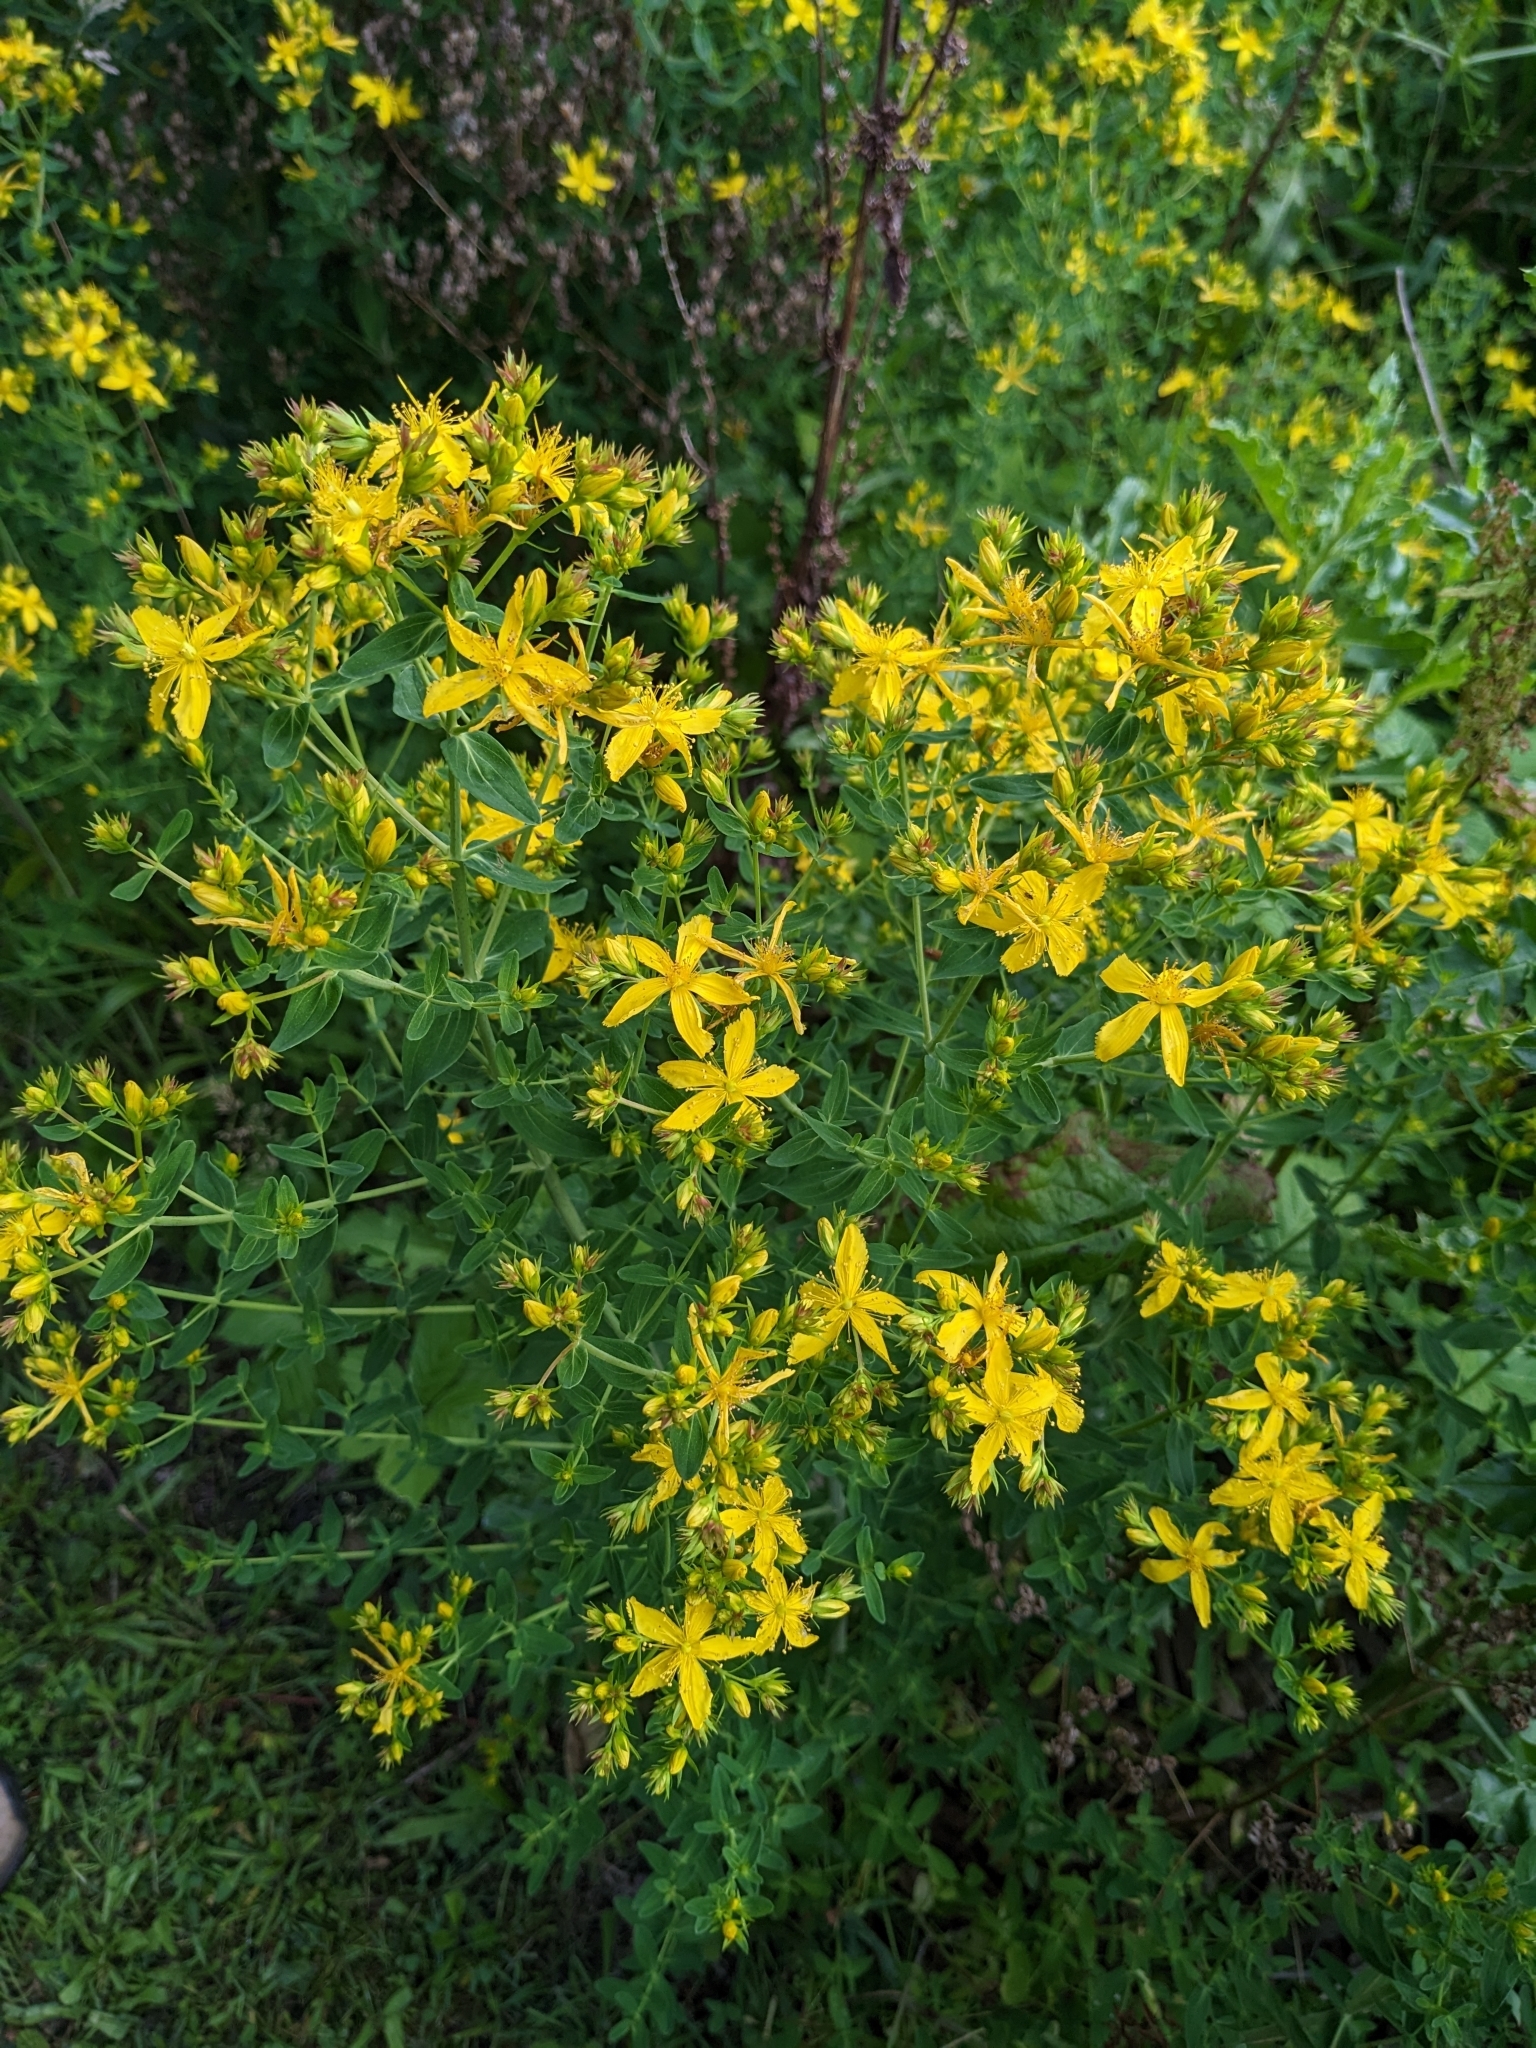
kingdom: Plantae
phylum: Tracheophyta
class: Magnoliopsida
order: Malpighiales
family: Hypericaceae
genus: Hypericum
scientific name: Hypericum perforatum
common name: Common st. johnswort
